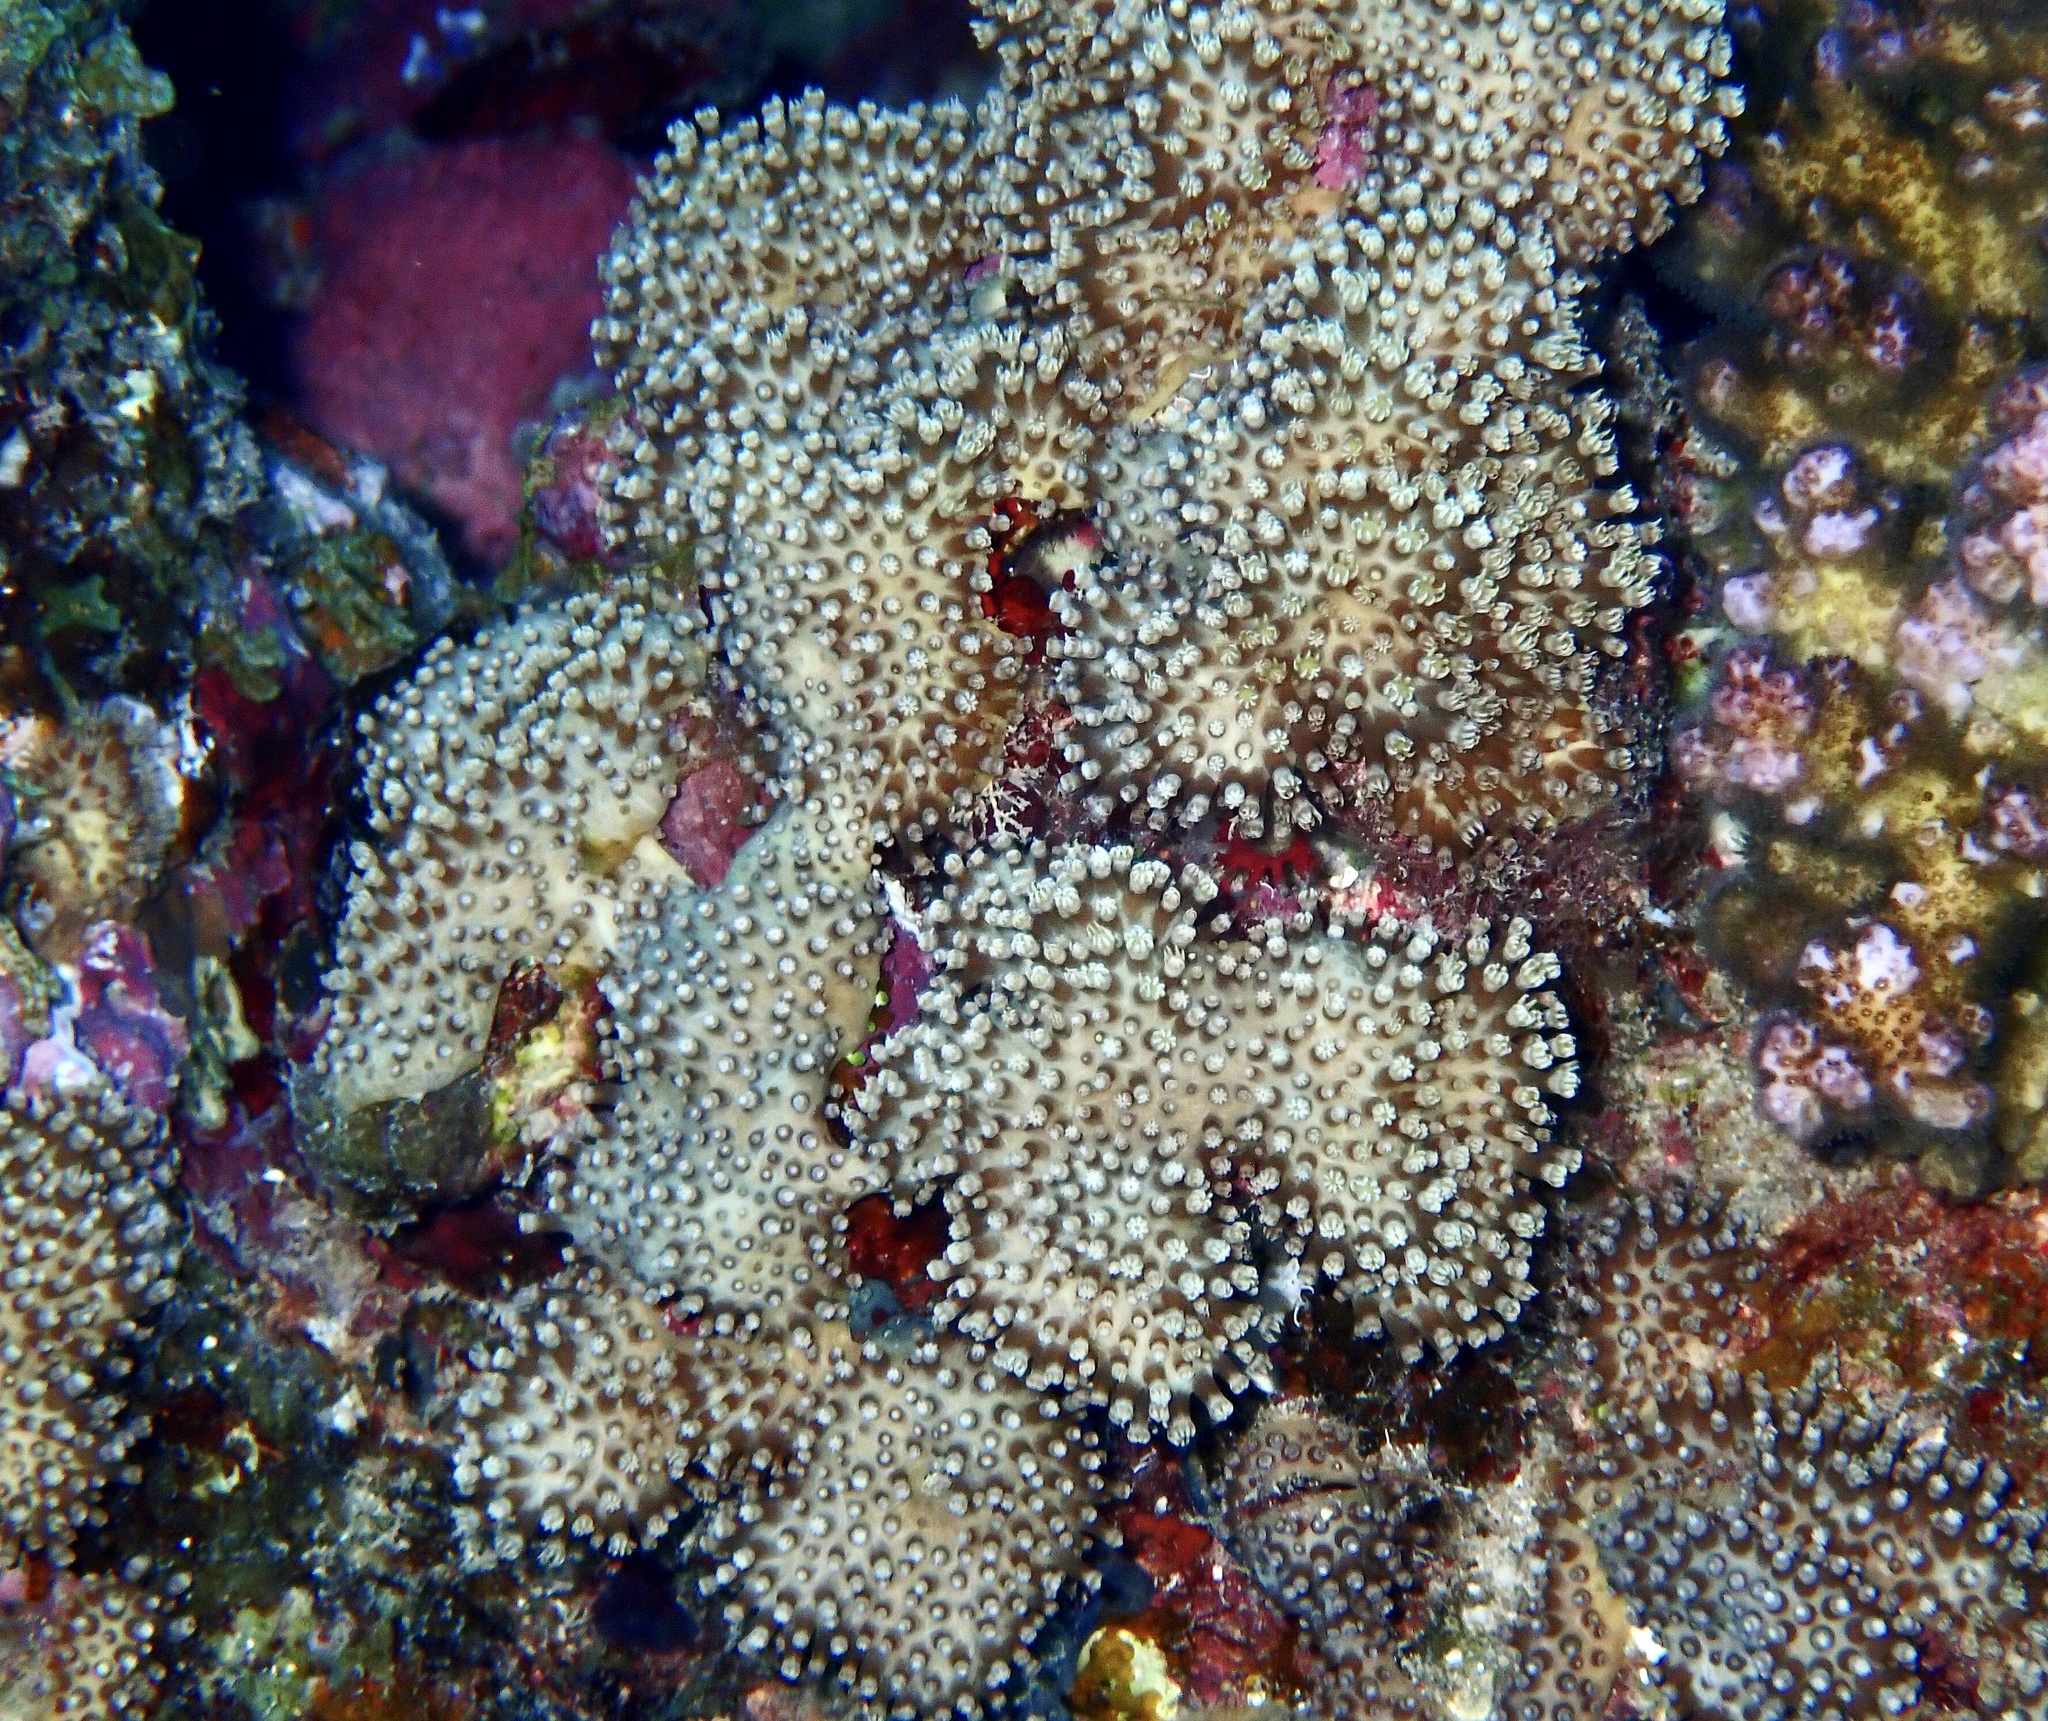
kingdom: Animalia
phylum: Cnidaria
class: Anthozoa
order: Malacalcyonacea
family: Lemnaliadae
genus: Rhytisma
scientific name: Rhytisma fulvum
